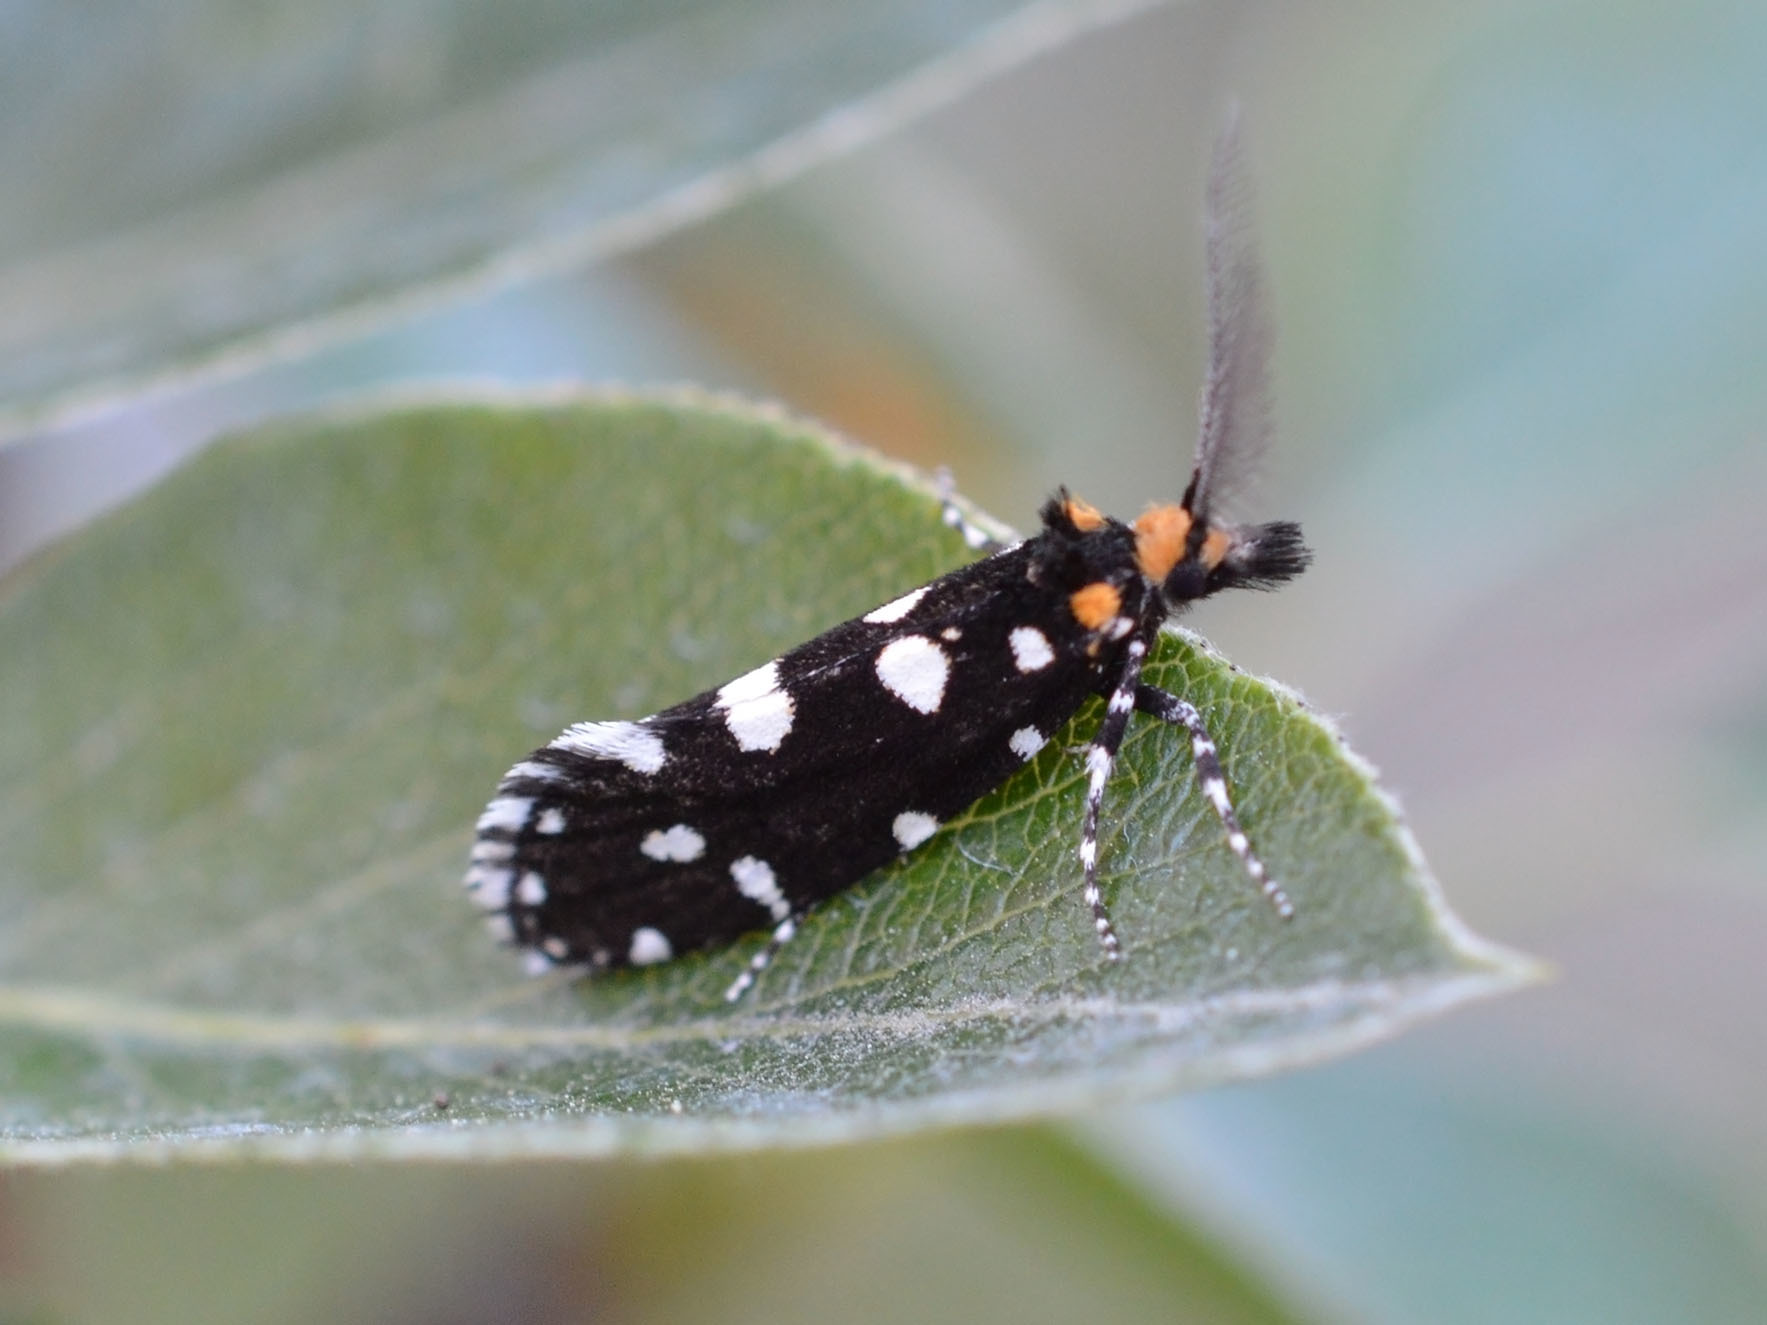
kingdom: Animalia
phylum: Arthropoda
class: Insecta
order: Lepidoptera
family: Tineidae
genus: Euplocamus
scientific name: Euplocamus anthracinalis
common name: Black clothes
